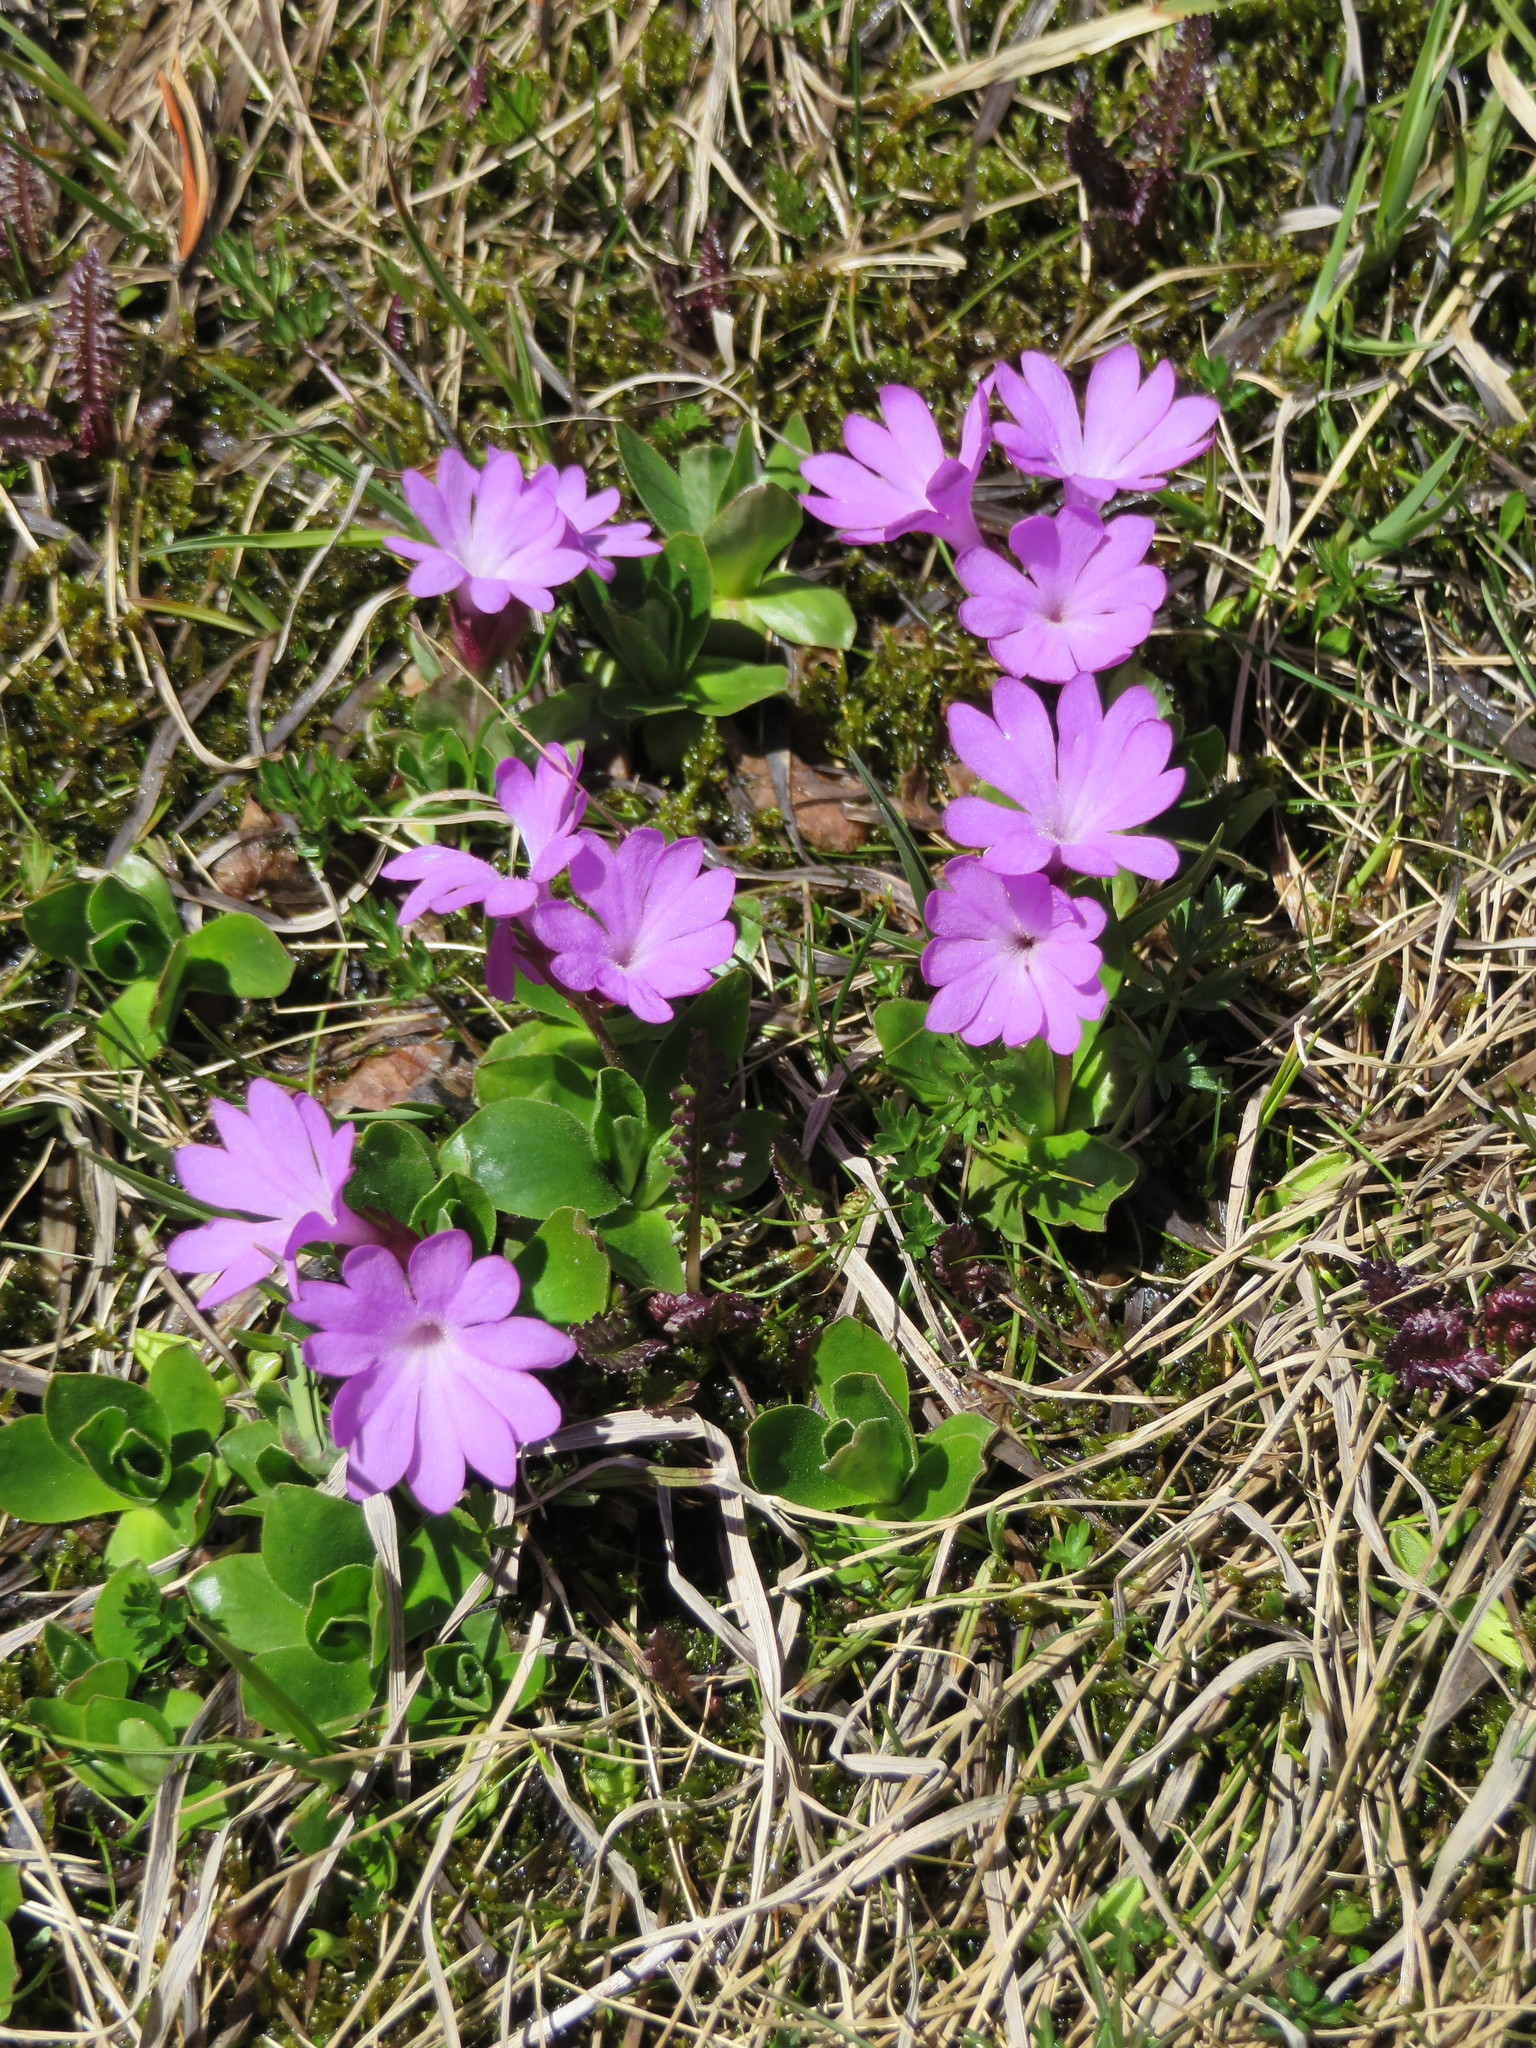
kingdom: Plantae
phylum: Tracheophyta
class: Magnoliopsida
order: Ericales
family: Primulaceae
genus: Primula
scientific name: Primula integrifolia
